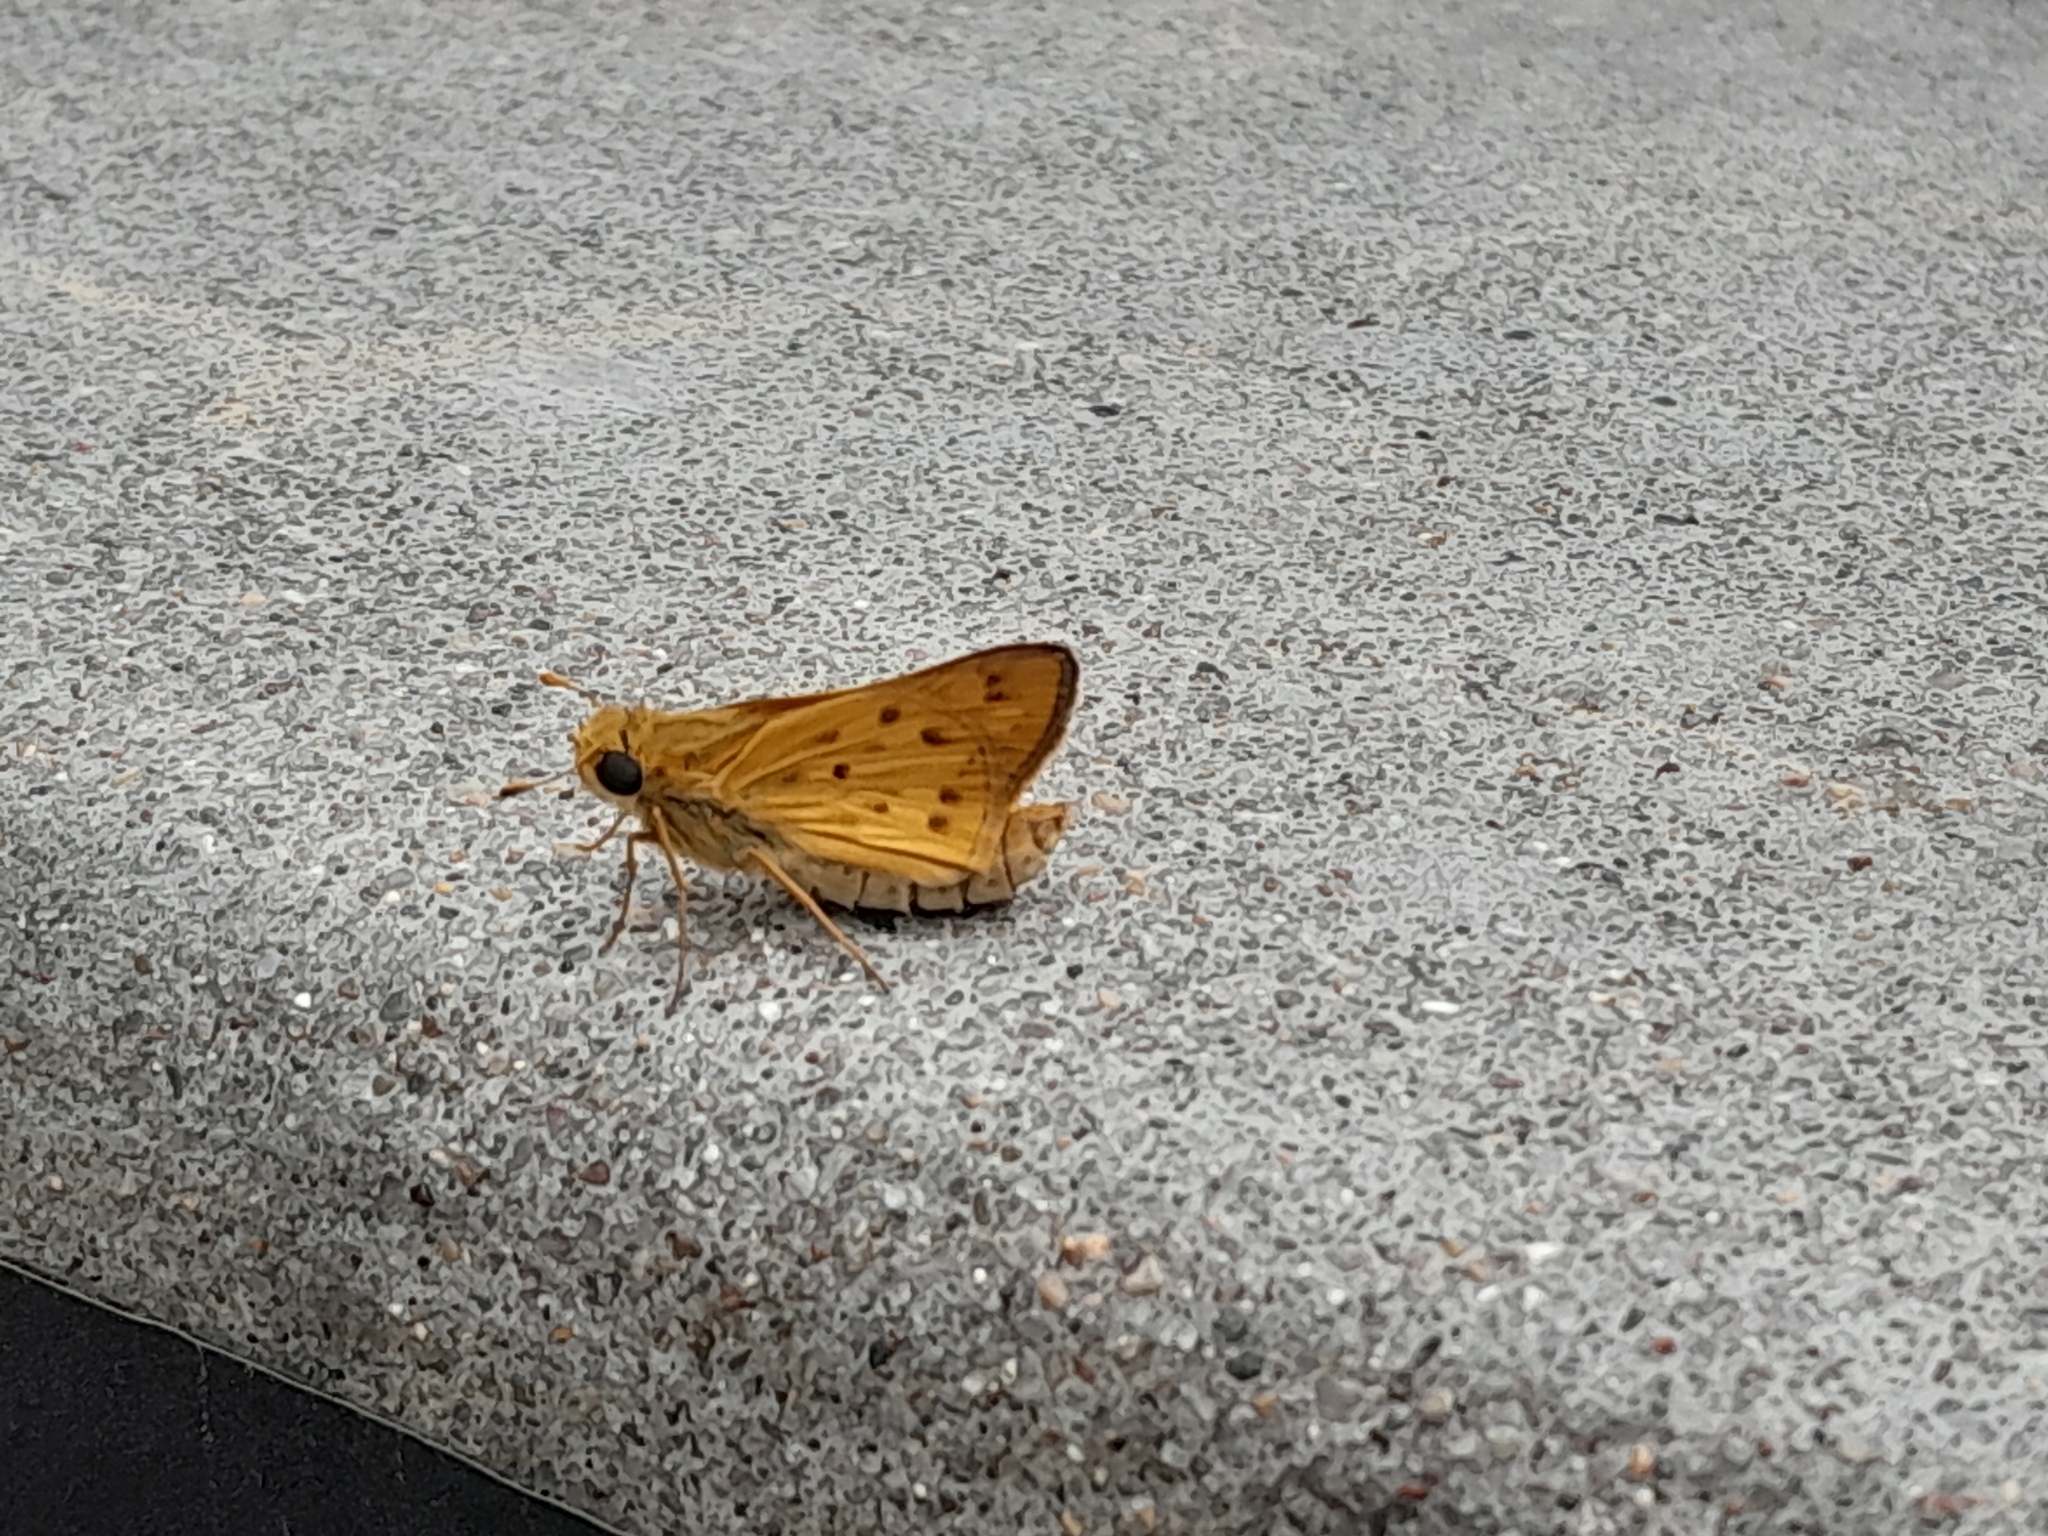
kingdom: Animalia
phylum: Arthropoda
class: Insecta
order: Lepidoptera
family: Hesperiidae
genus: Hylephila
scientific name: Hylephila phyleus
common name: Fiery skipper
